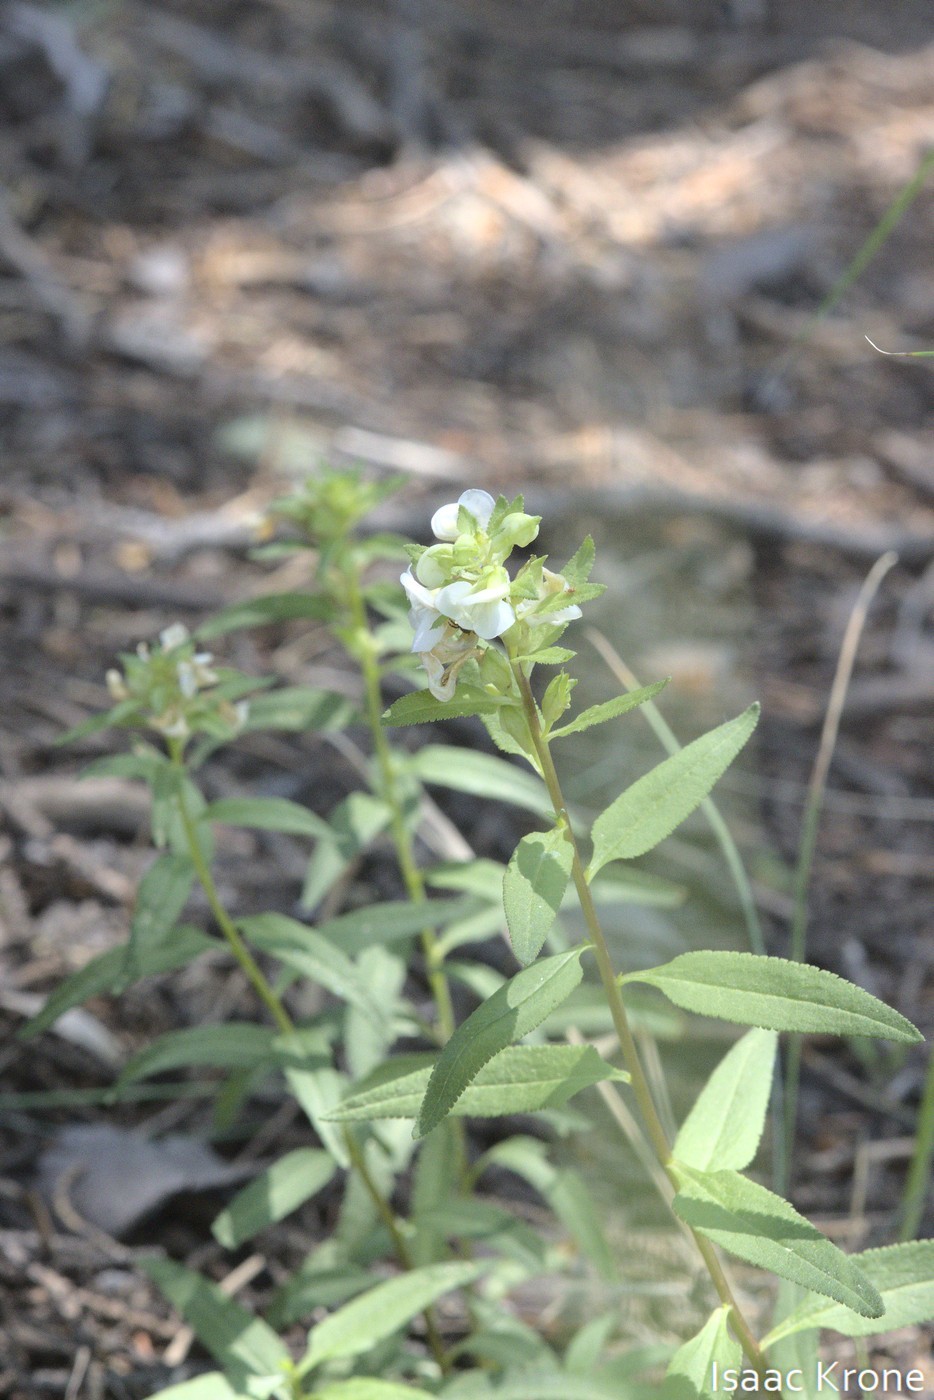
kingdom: Plantae
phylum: Tracheophyta
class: Magnoliopsida
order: Lamiales
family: Orobanchaceae
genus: Pedicularis
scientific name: Pedicularis racemosa
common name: Leafy lousewort
